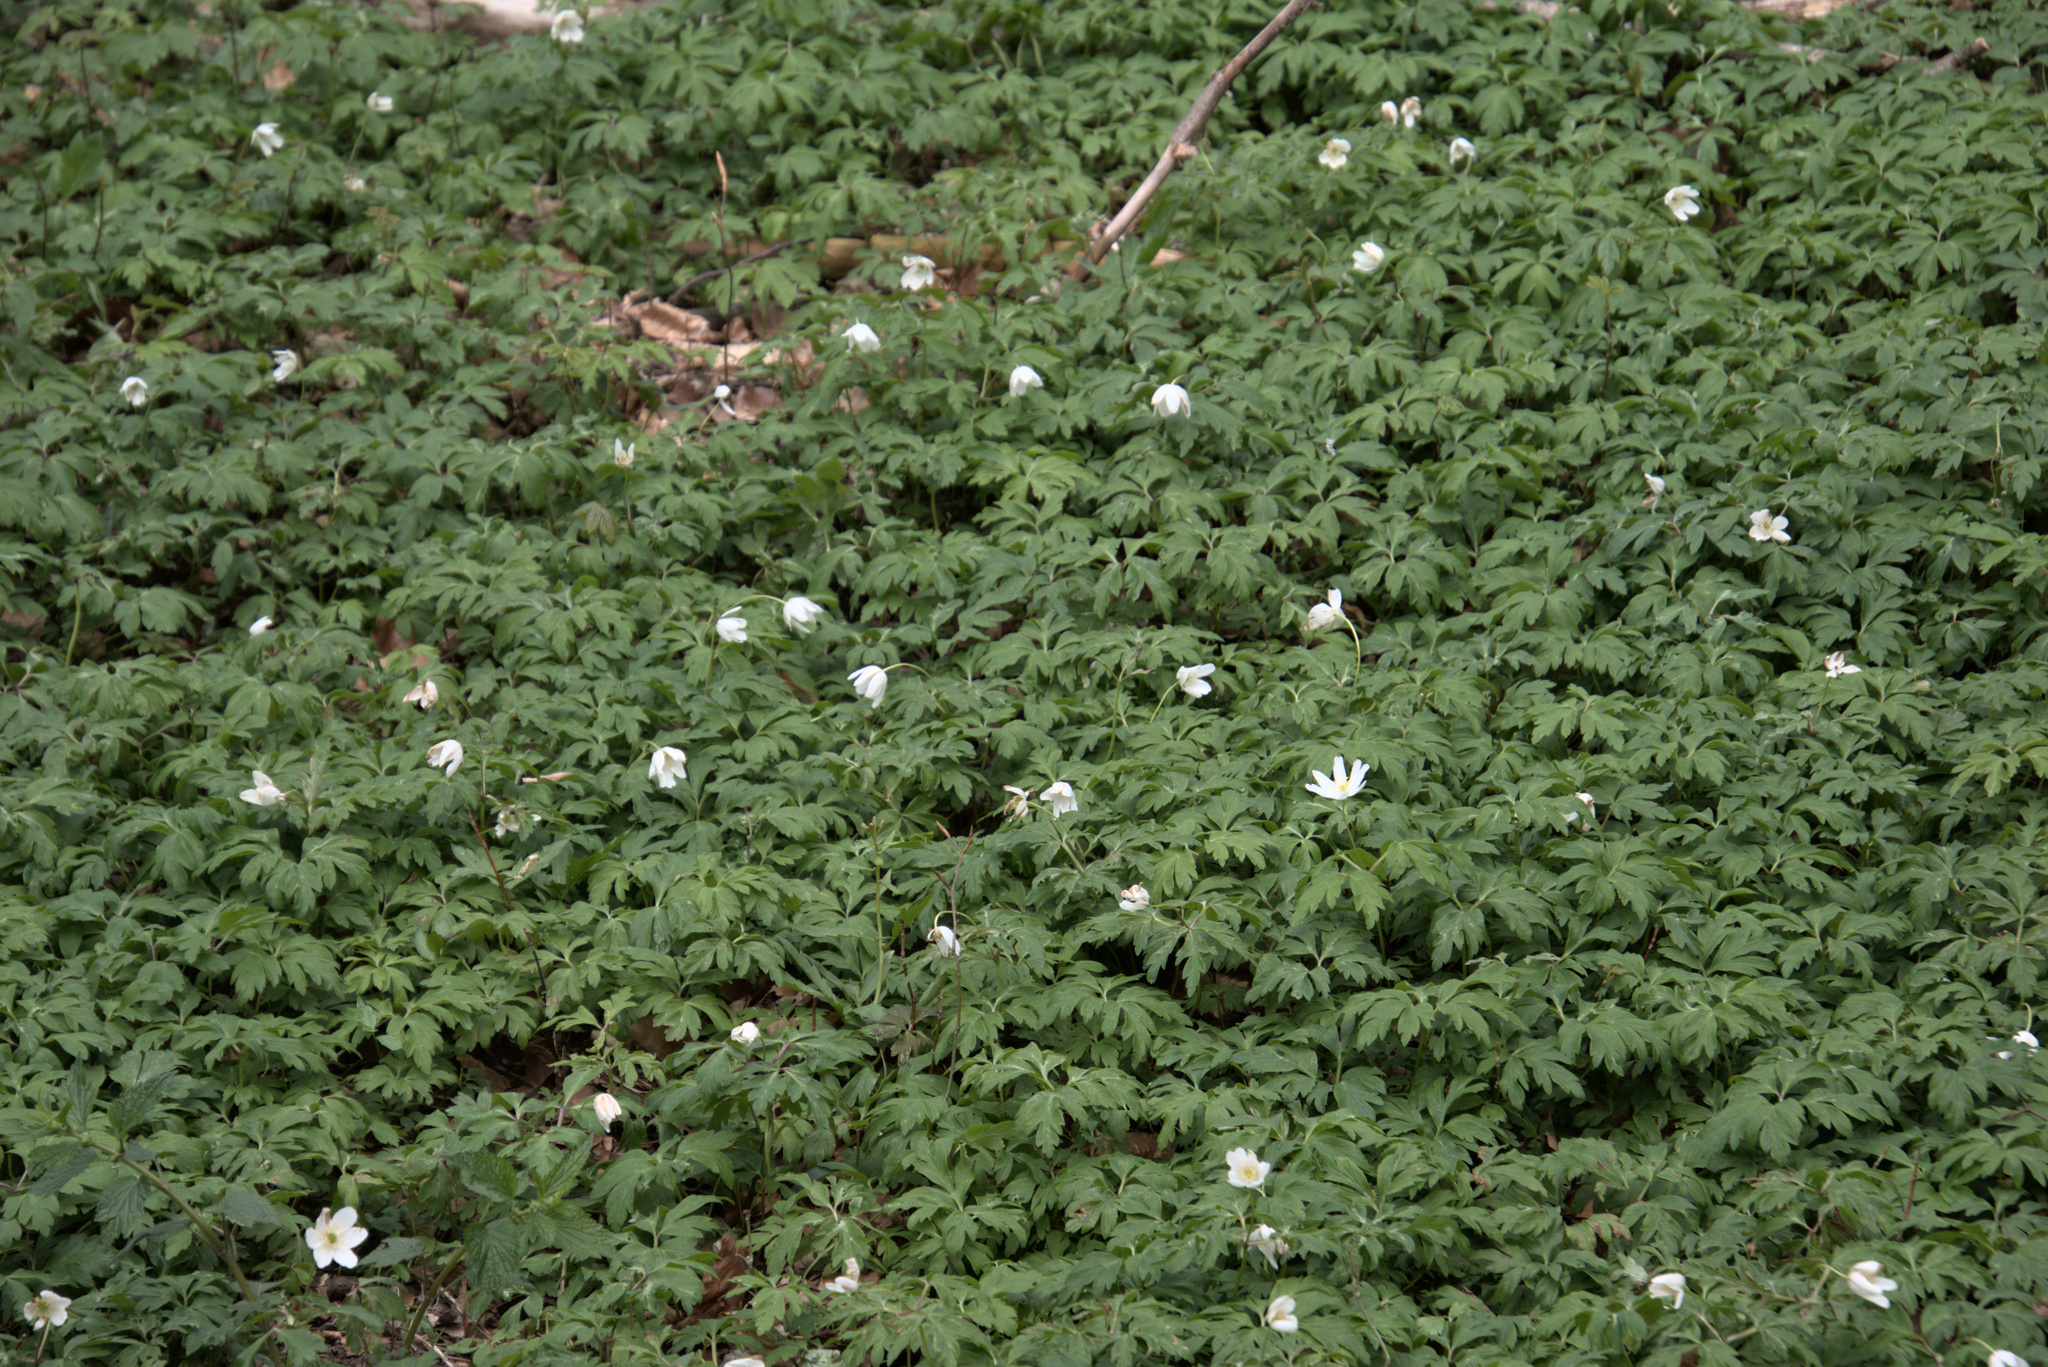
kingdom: Plantae
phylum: Tracheophyta
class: Magnoliopsida
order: Ranunculales
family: Ranunculaceae
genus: Anemone
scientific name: Anemone nemorosa
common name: Wood anemone
